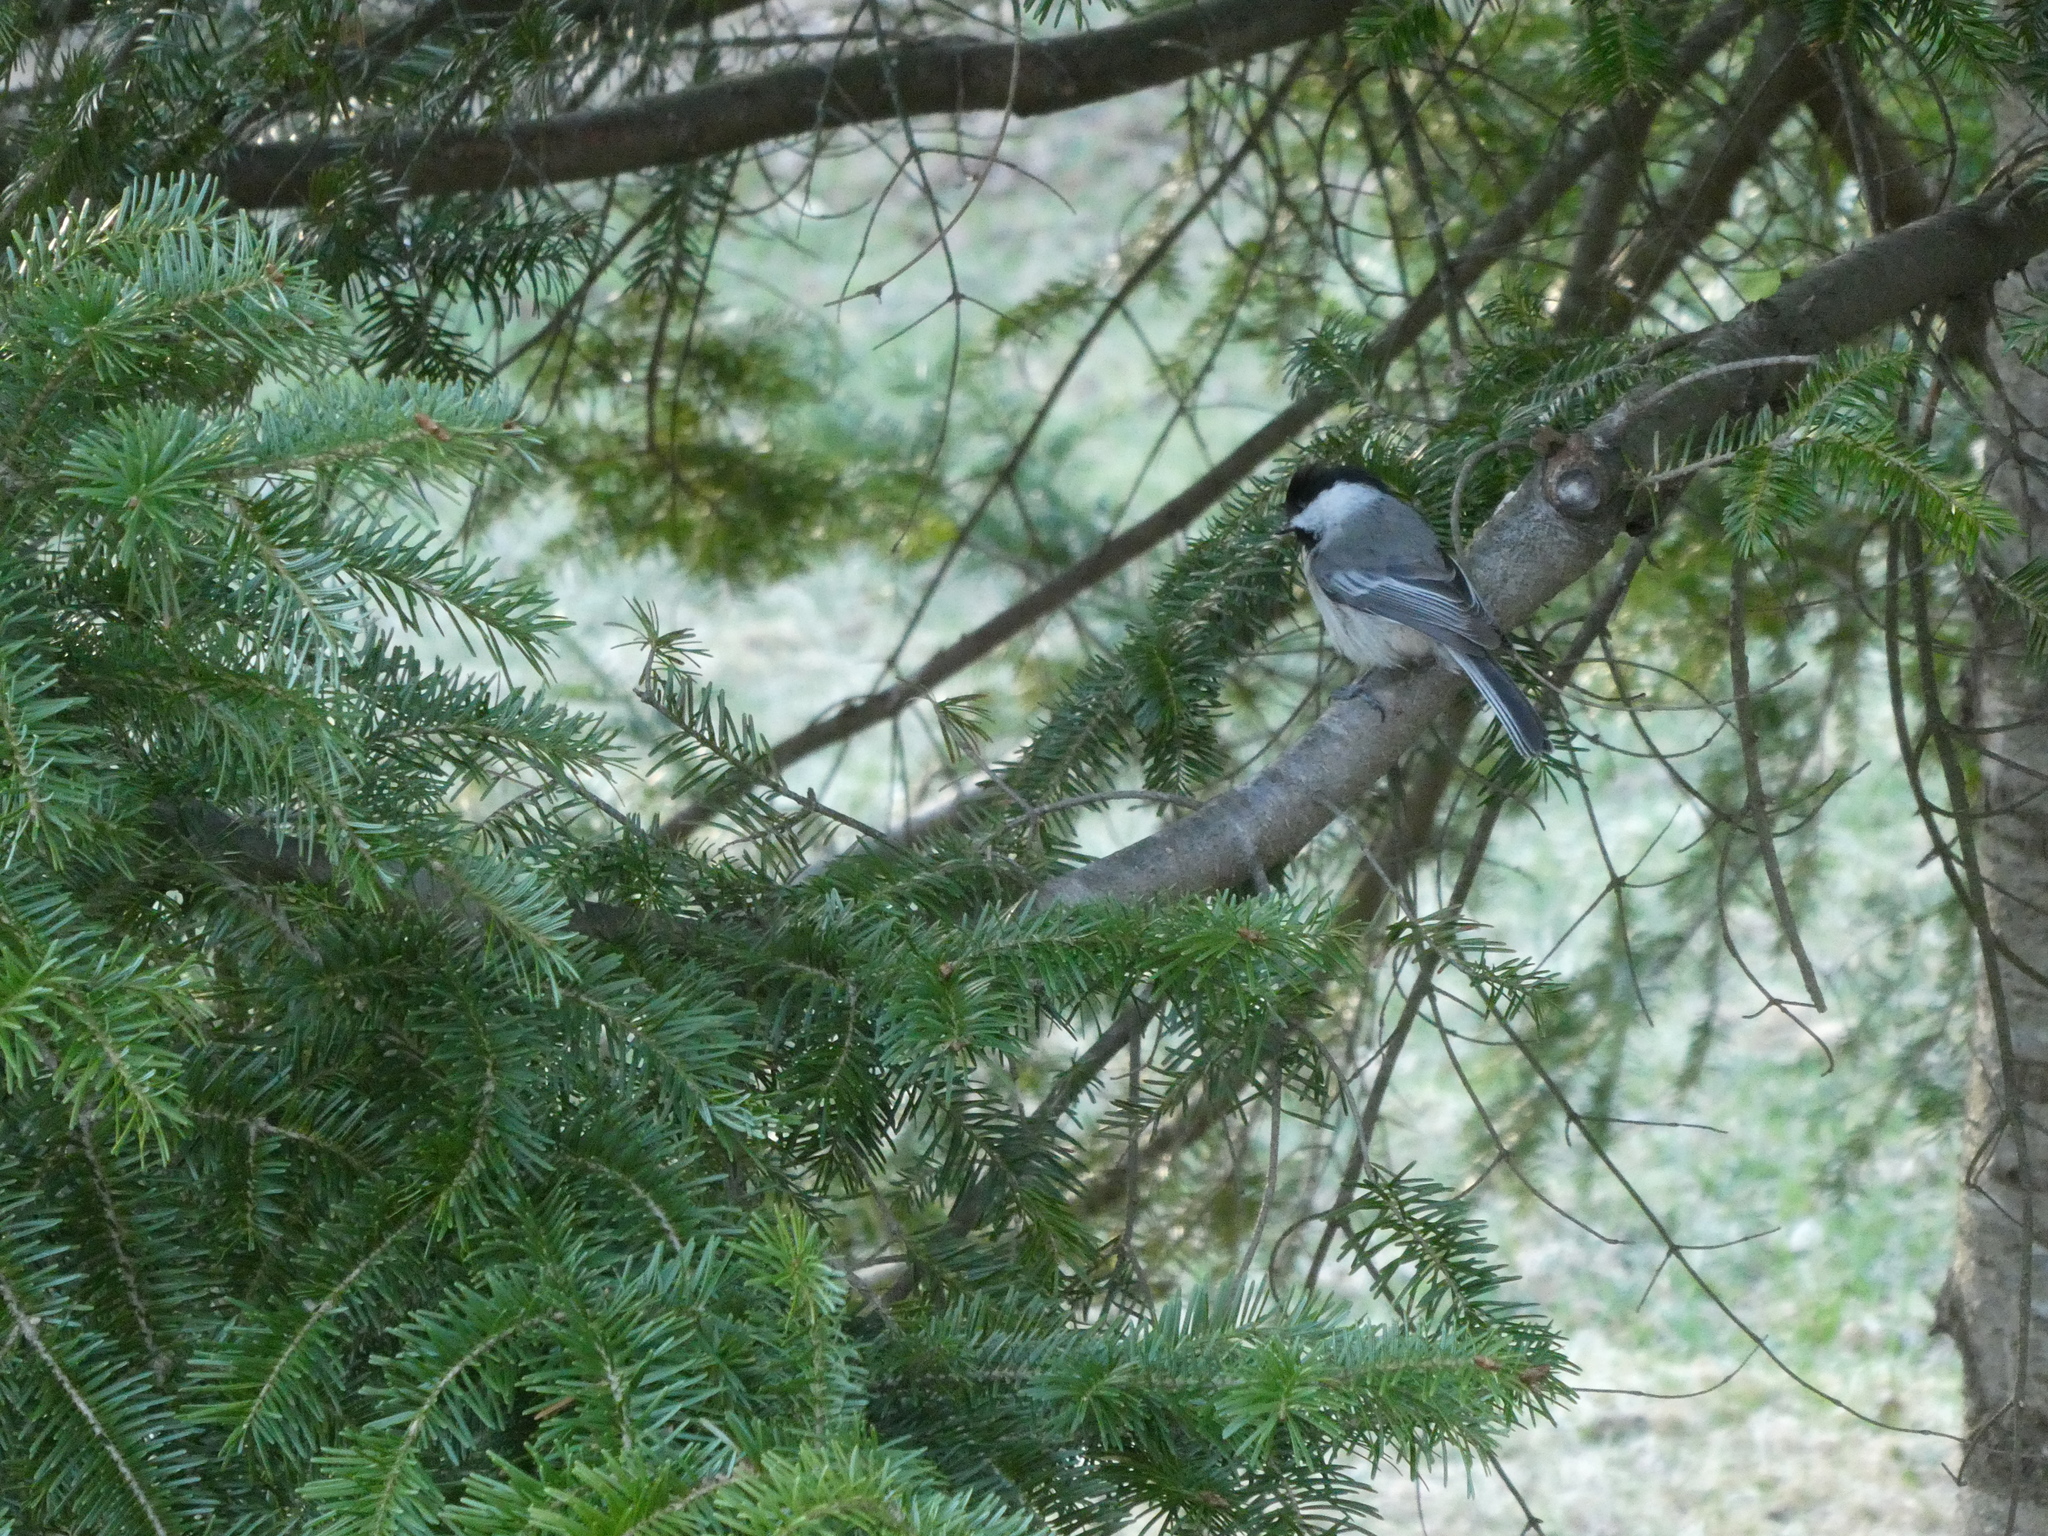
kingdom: Animalia
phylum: Chordata
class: Aves
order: Passeriformes
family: Paridae
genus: Poecile
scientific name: Poecile atricapillus
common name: Black-capped chickadee
